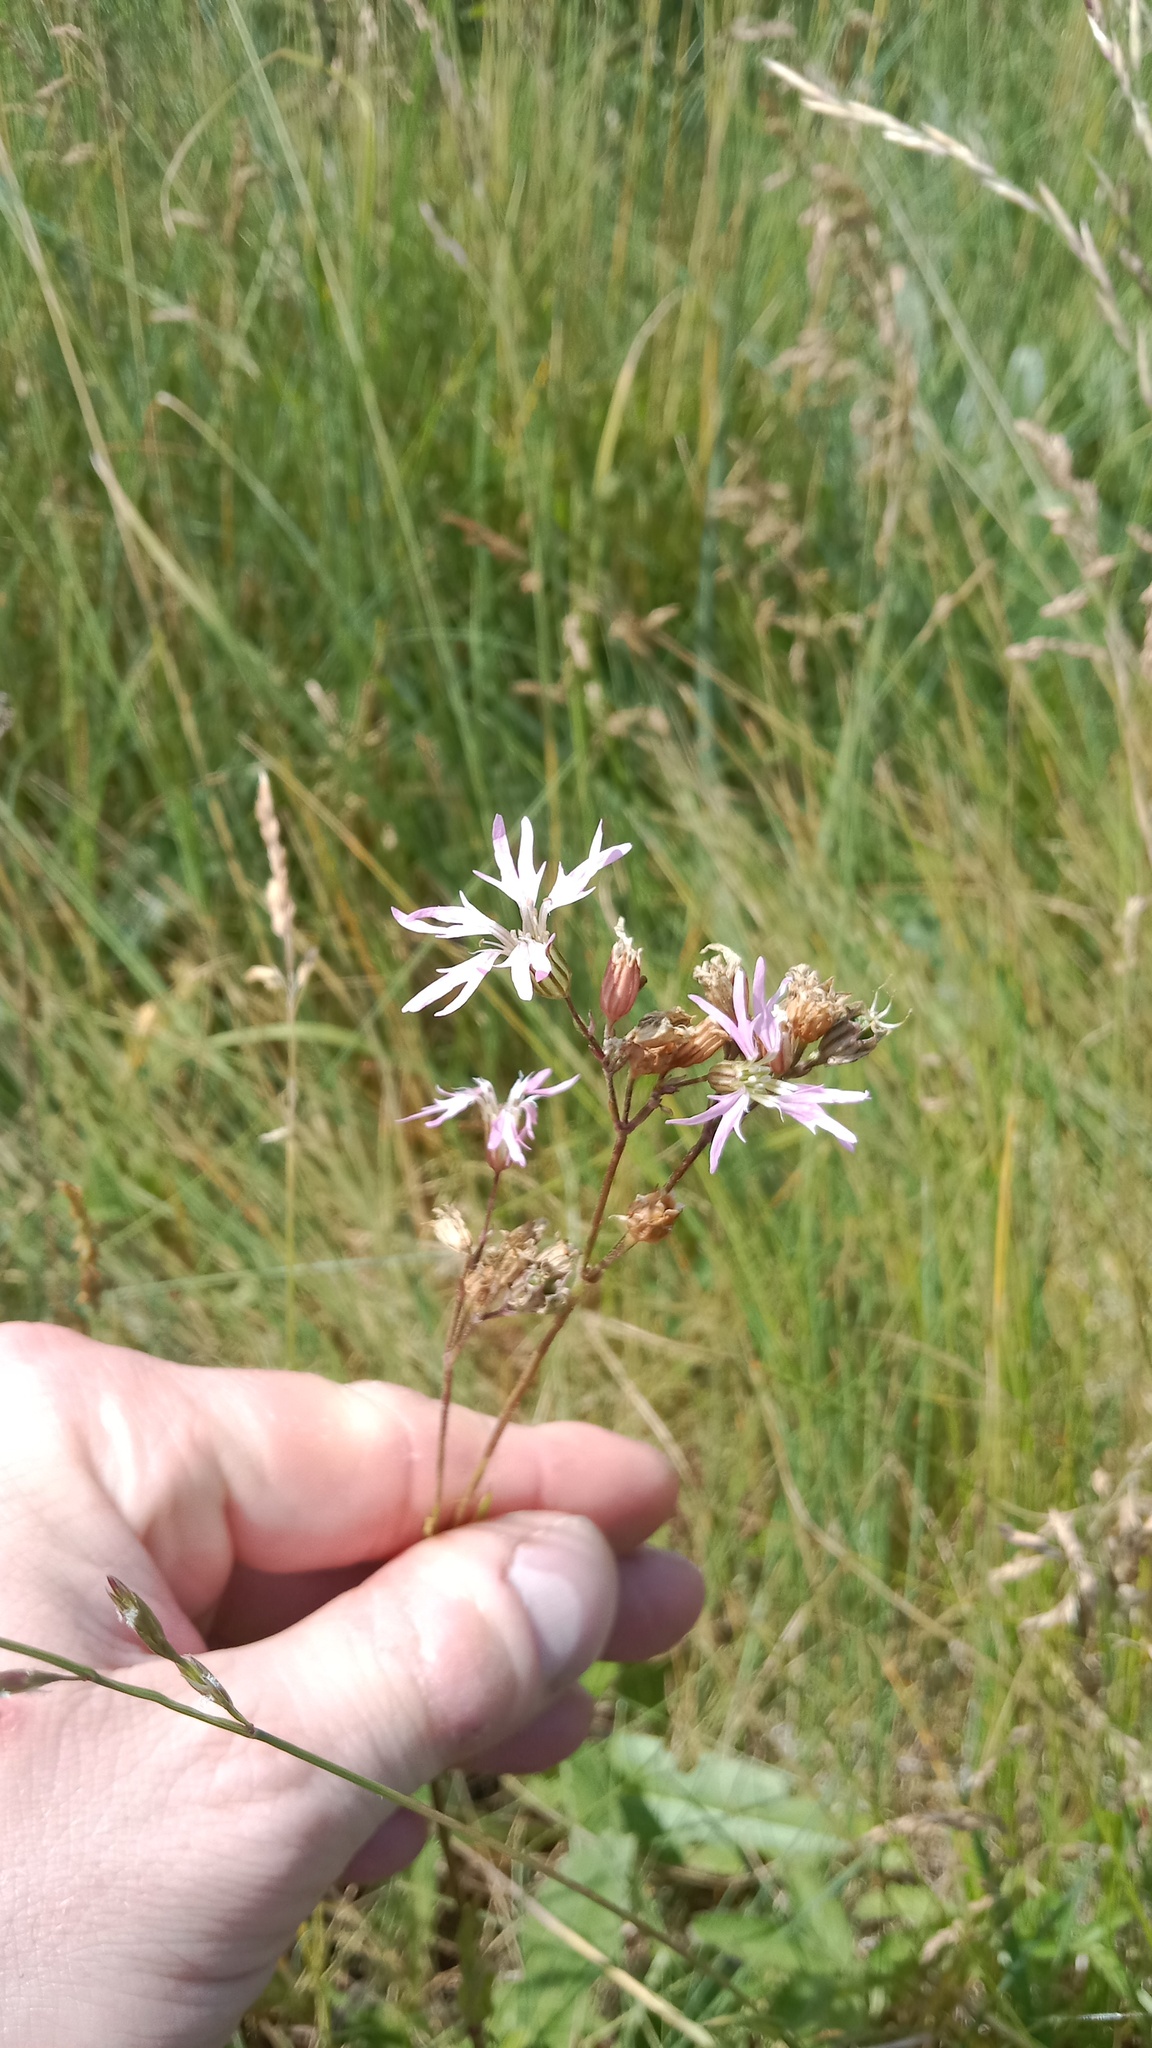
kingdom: Plantae
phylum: Tracheophyta
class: Magnoliopsida
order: Caryophyllales
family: Caryophyllaceae
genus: Silene
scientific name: Silene flos-cuculi
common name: Ragged-robin
